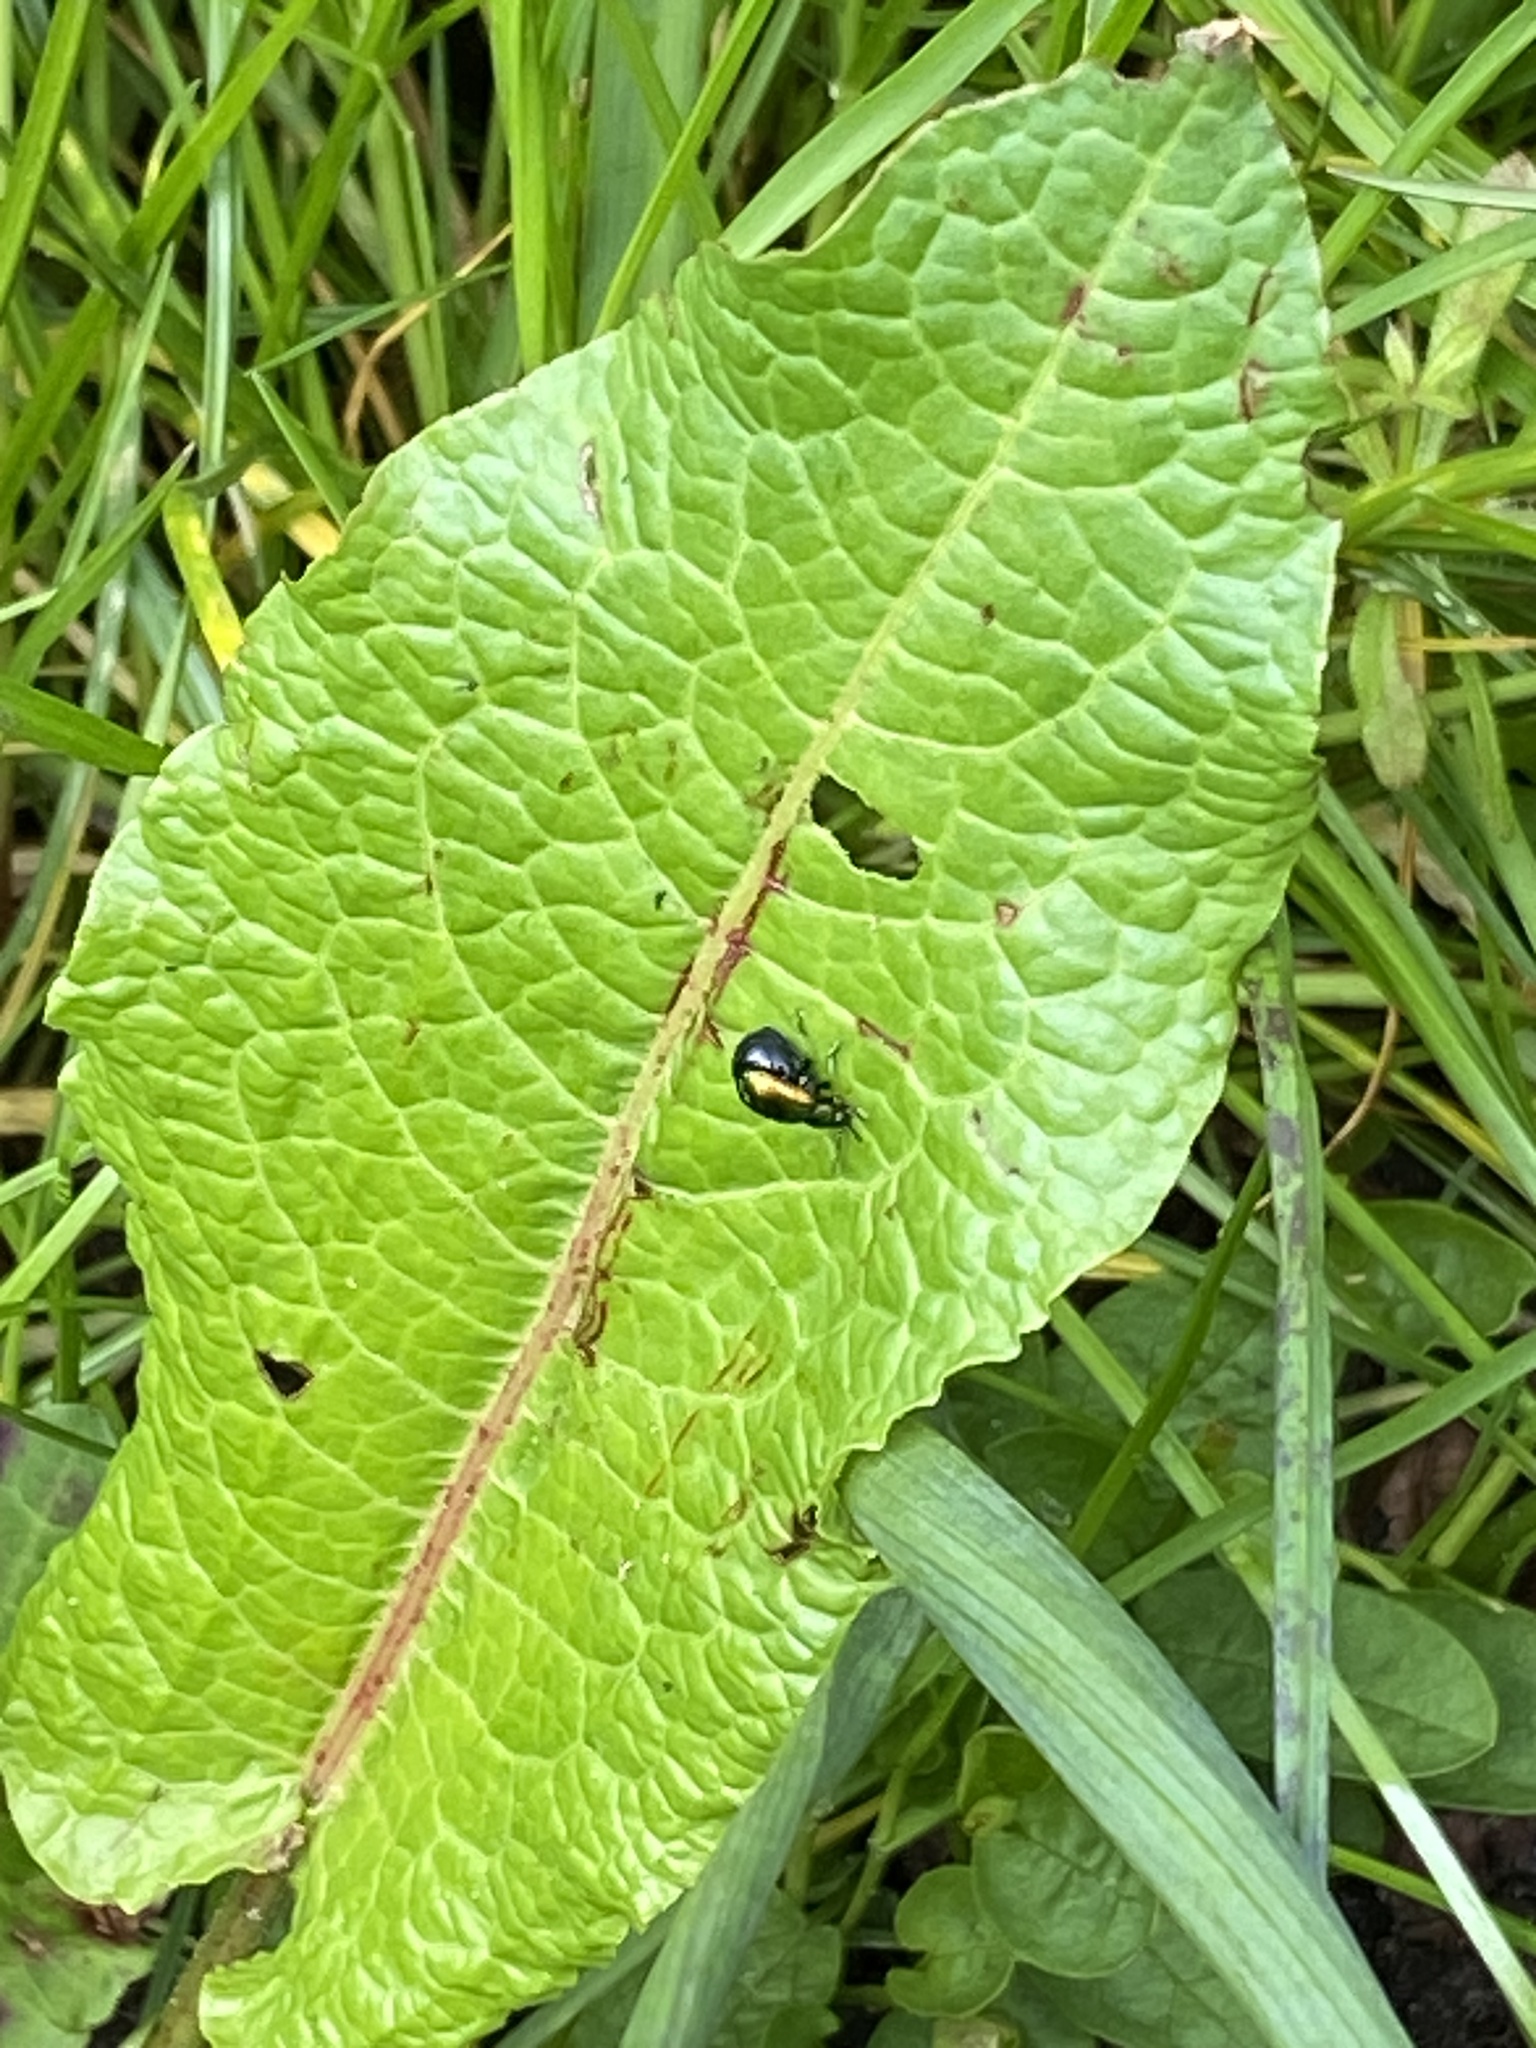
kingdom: Animalia
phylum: Arthropoda
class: Insecta
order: Coleoptera
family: Chrysomelidae
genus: Gastrophysa
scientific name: Gastrophysa viridula
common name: Green dock beetle
